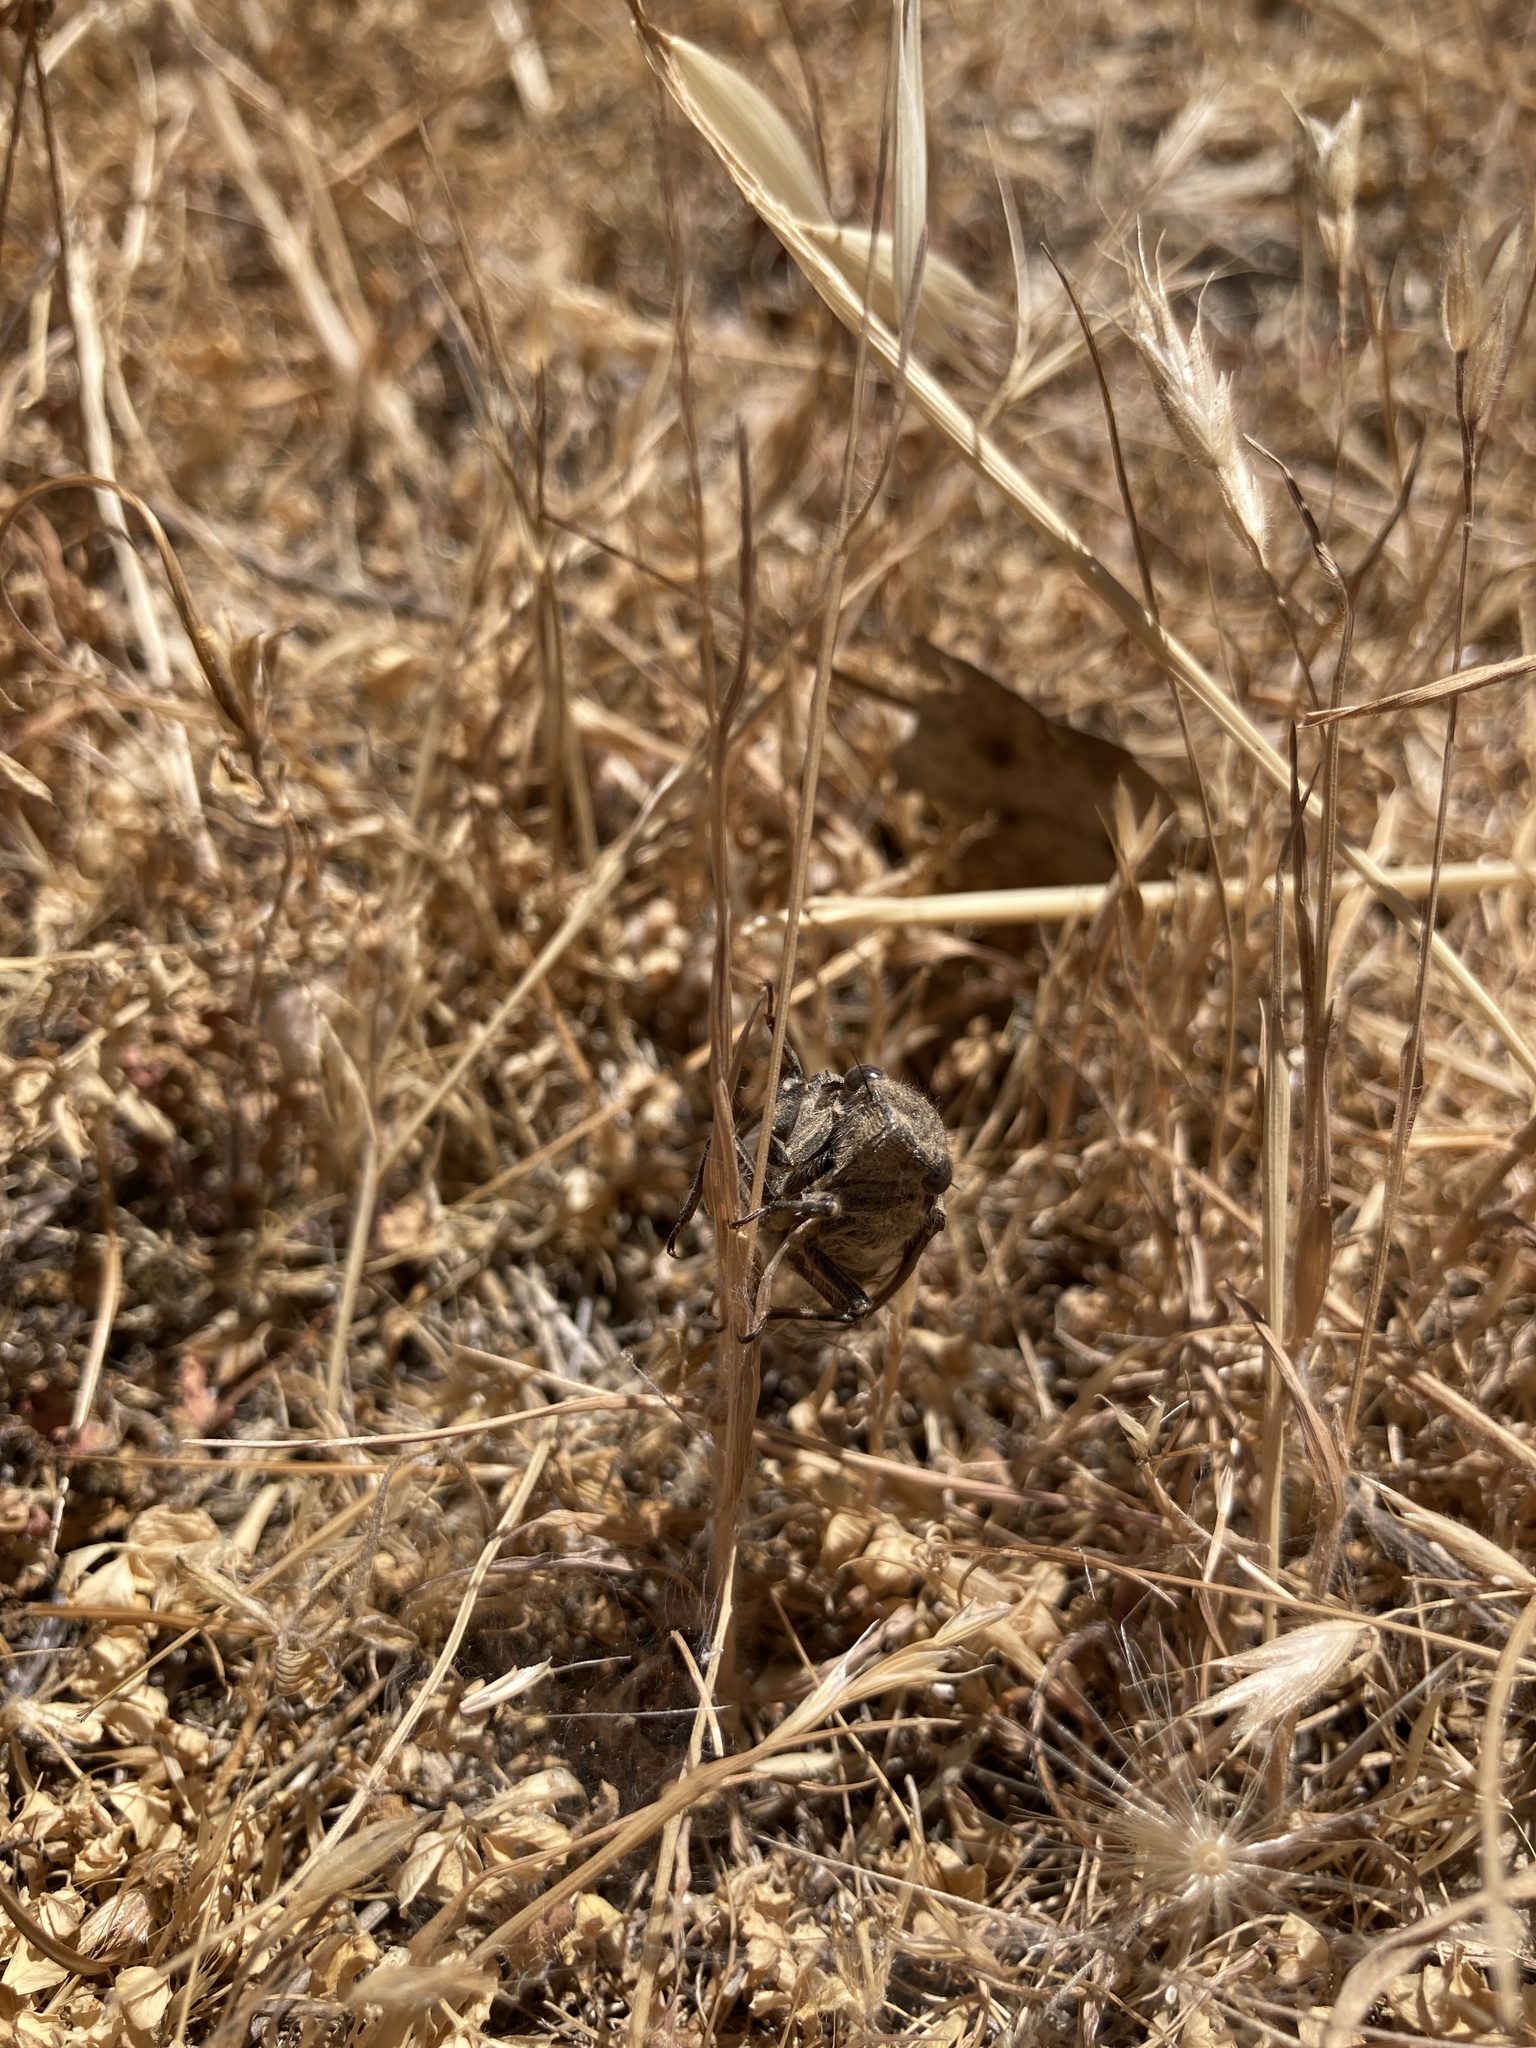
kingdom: Animalia
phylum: Arthropoda
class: Insecta
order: Hemiptera
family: Cicadidae
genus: Tibicinoides
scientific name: Tibicinoides
